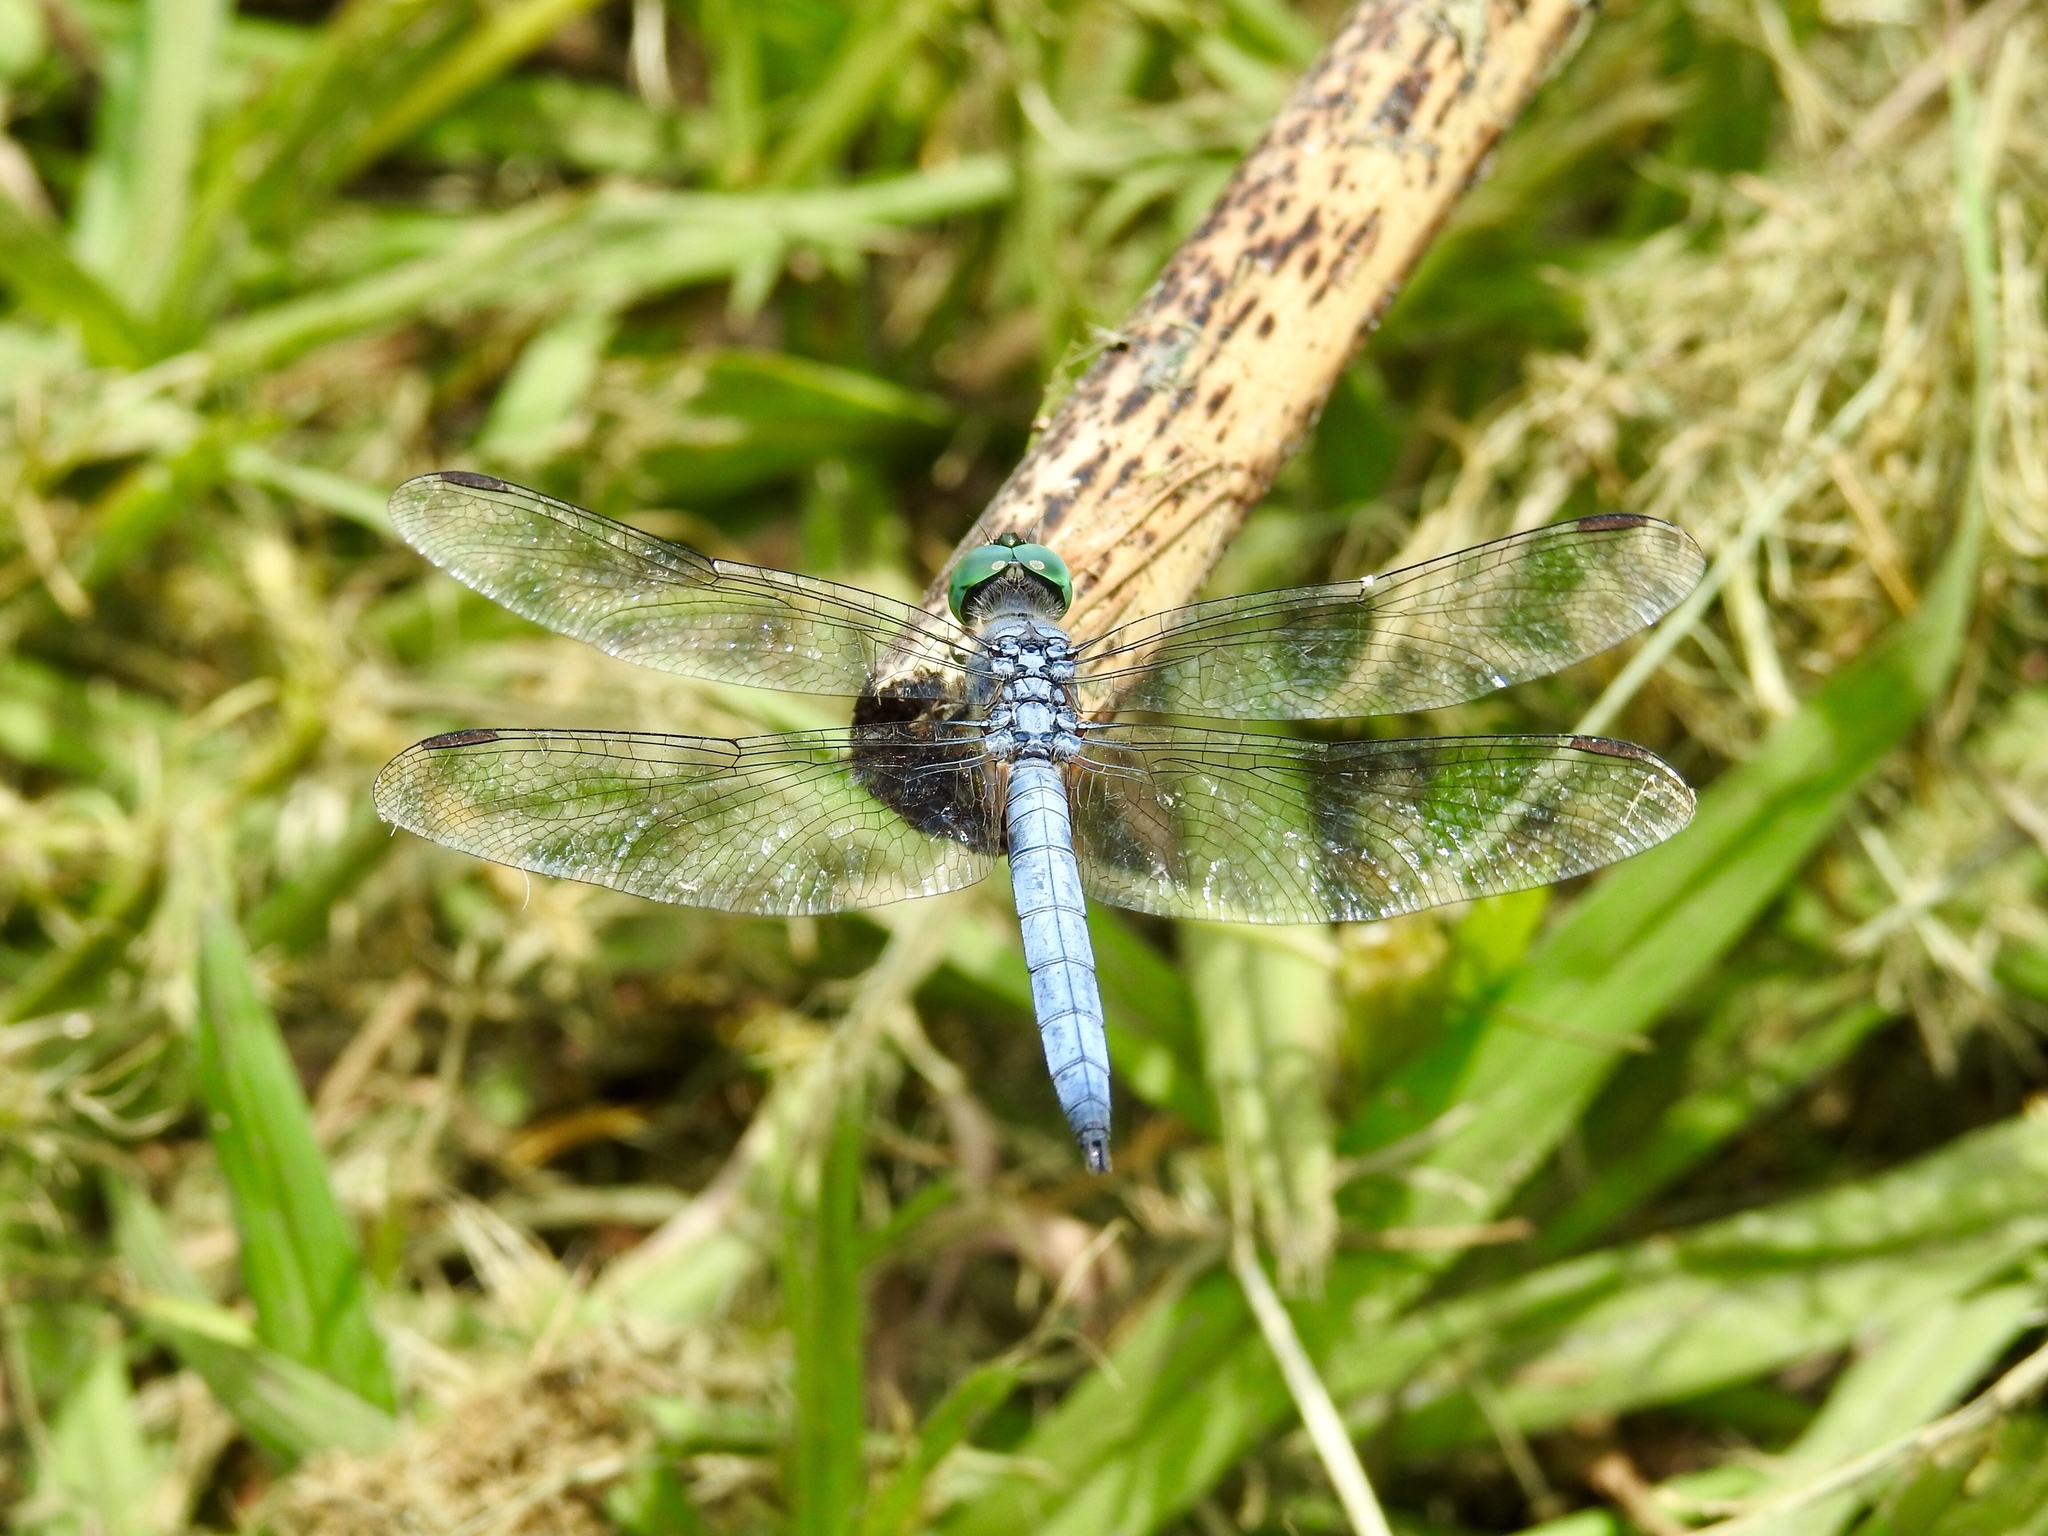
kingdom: Animalia
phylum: Arthropoda
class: Insecta
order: Odonata
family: Libellulidae
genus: Pachydiplax
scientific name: Pachydiplax longipennis
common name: Blue dasher
